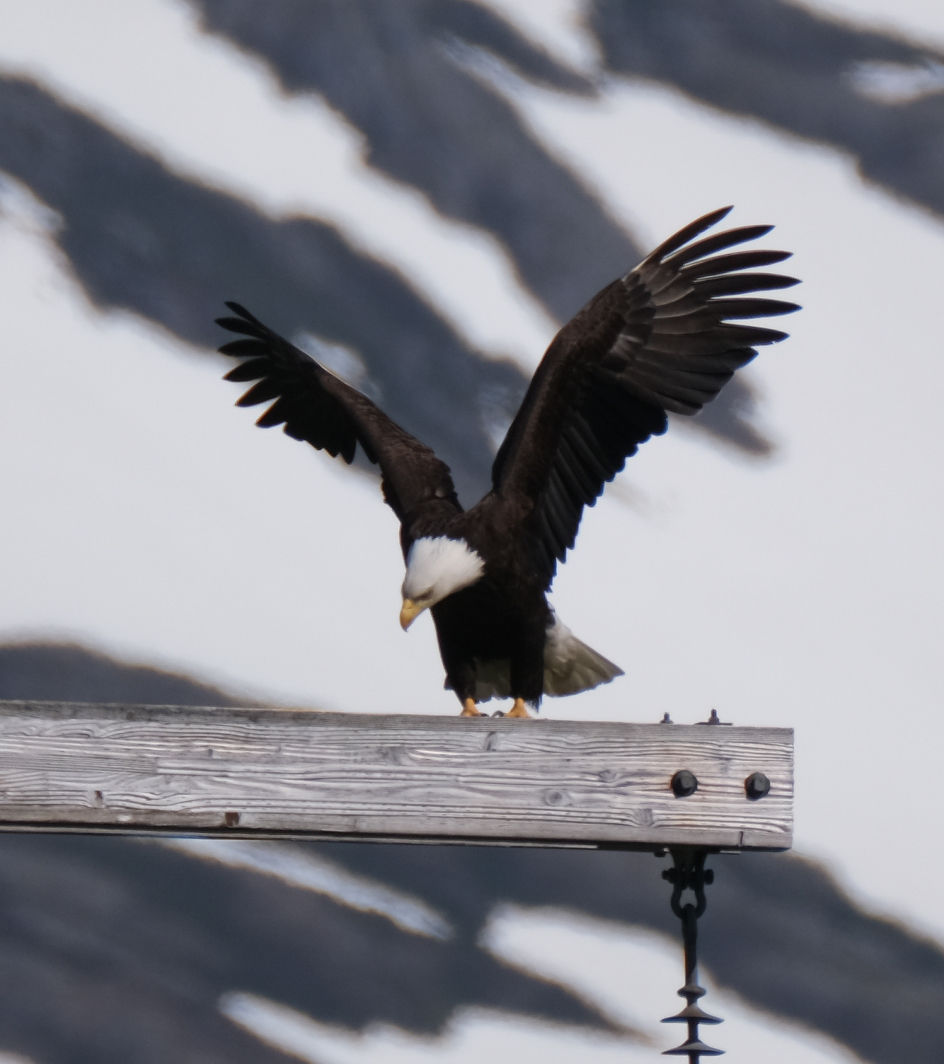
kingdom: Animalia
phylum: Chordata
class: Aves
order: Accipitriformes
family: Accipitridae
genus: Haliaeetus
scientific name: Haliaeetus leucocephalus
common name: Bald eagle
